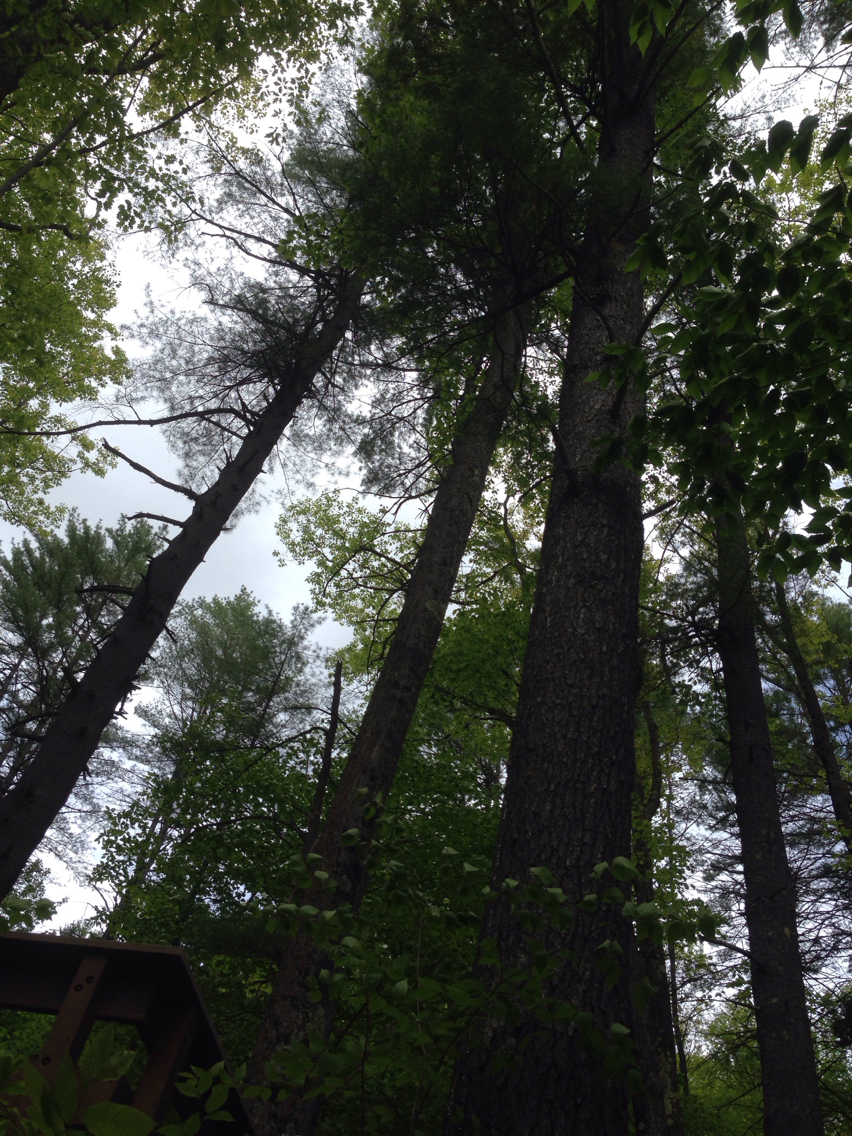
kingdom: Plantae
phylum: Tracheophyta
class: Pinopsida
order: Pinales
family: Pinaceae
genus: Pinus
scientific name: Pinus strobus
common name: Weymouth pine
